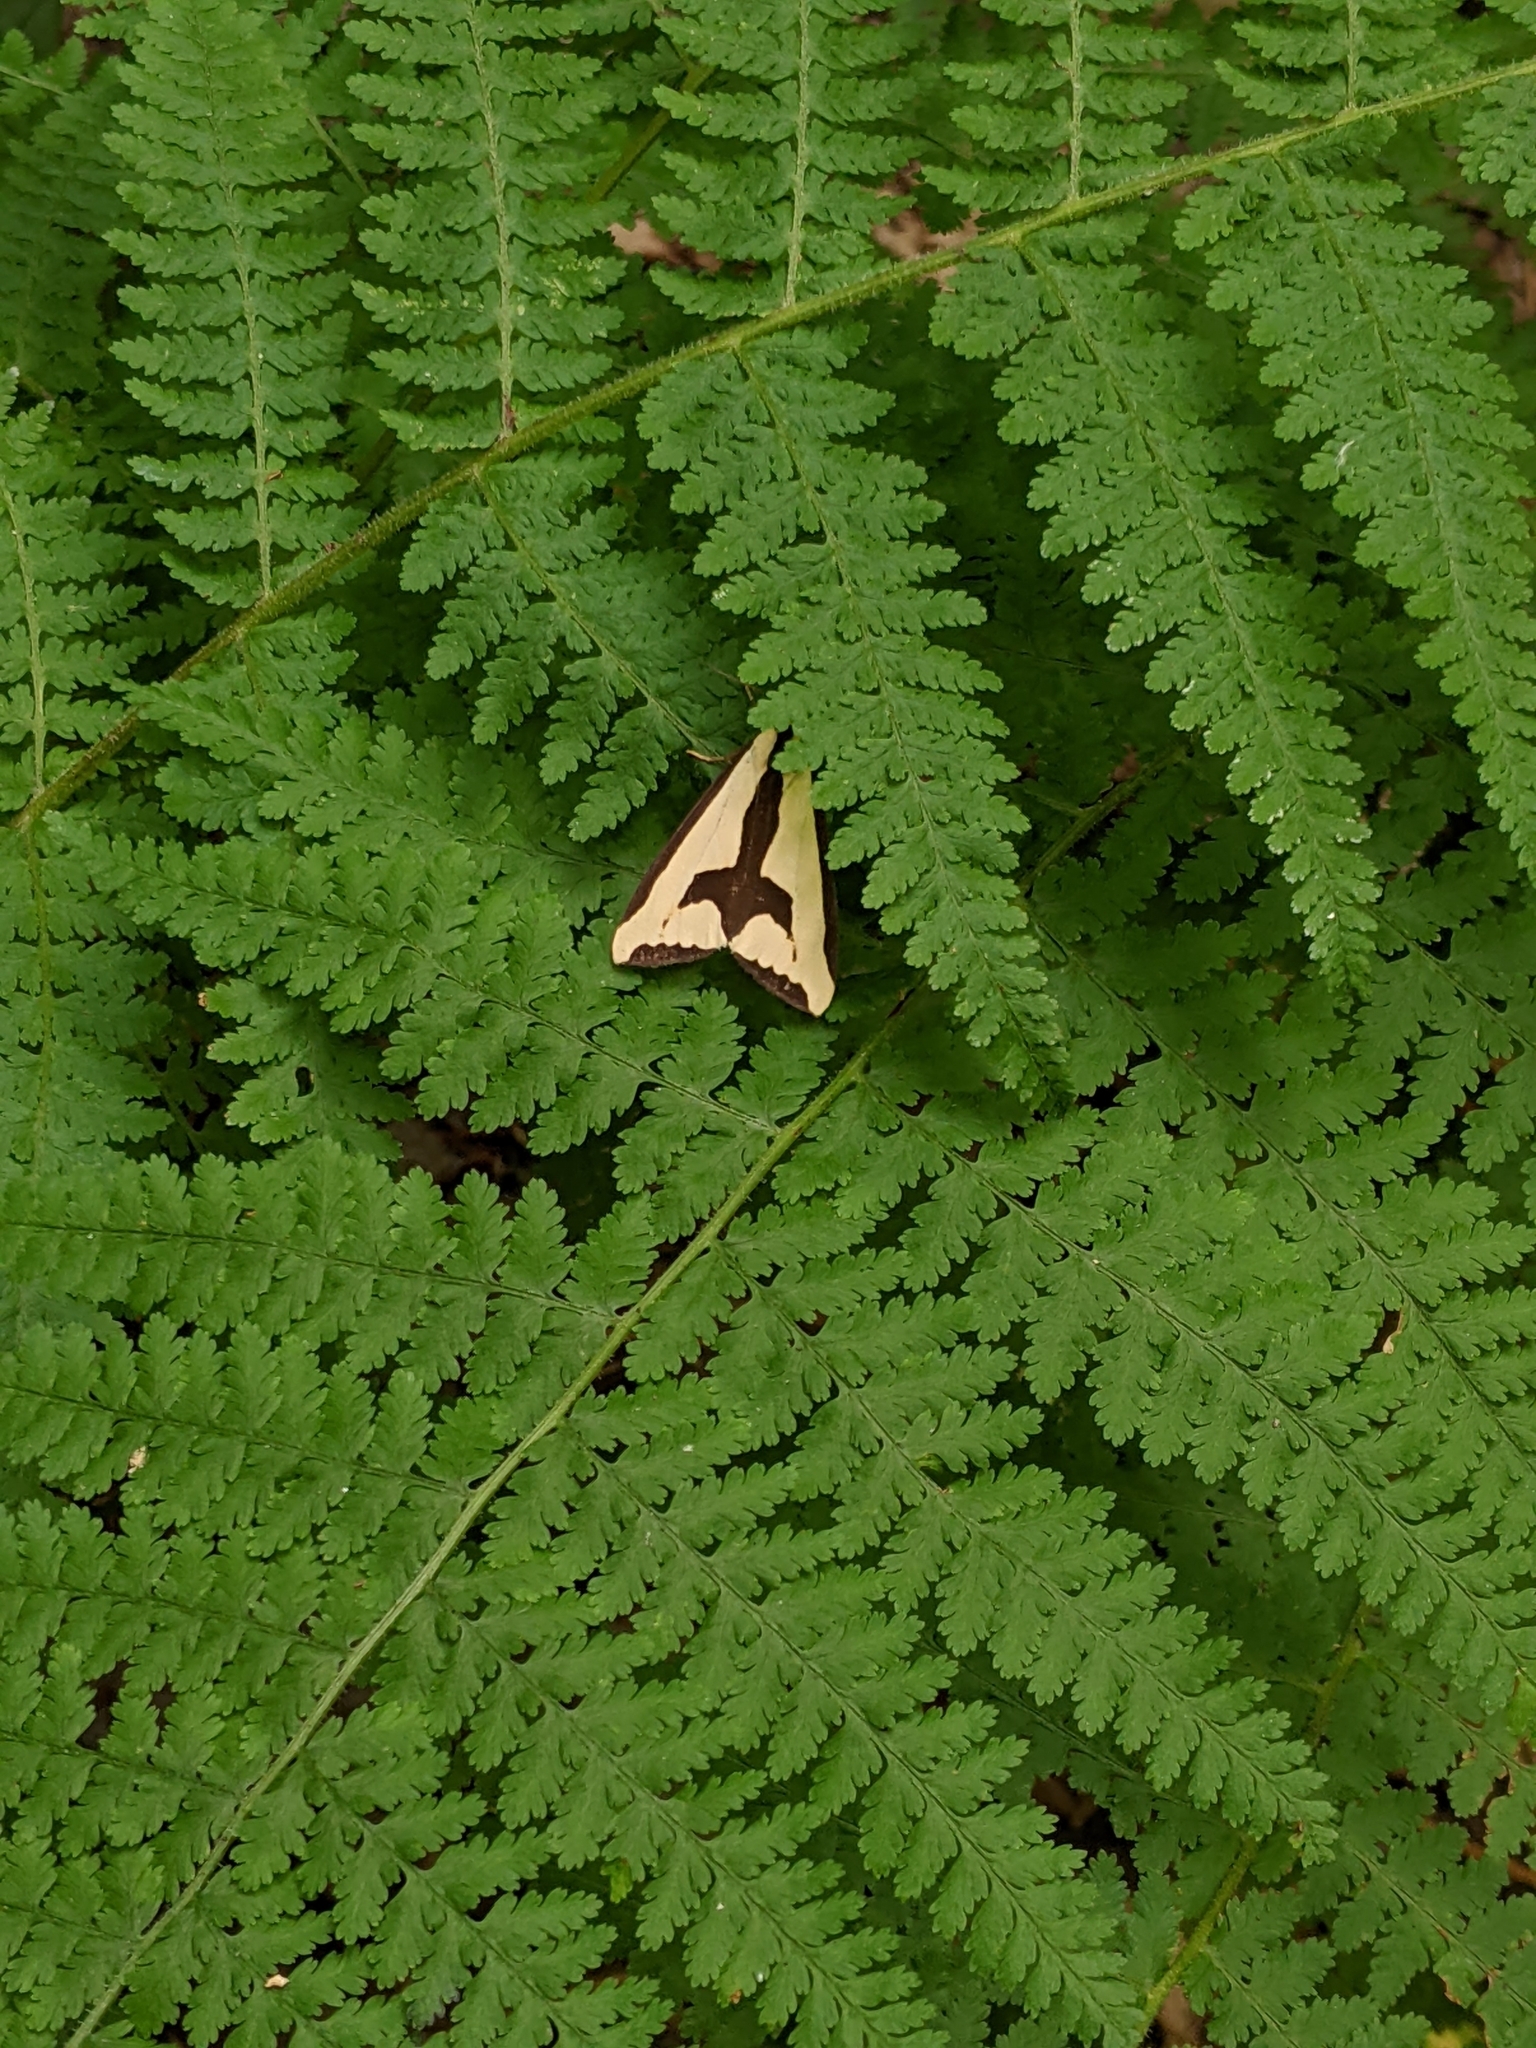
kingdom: Animalia
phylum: Arthropoda
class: Insecta
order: Lepidoptera
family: Erebidae
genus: Haploa
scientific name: Haploa clymene
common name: Clymene moth
